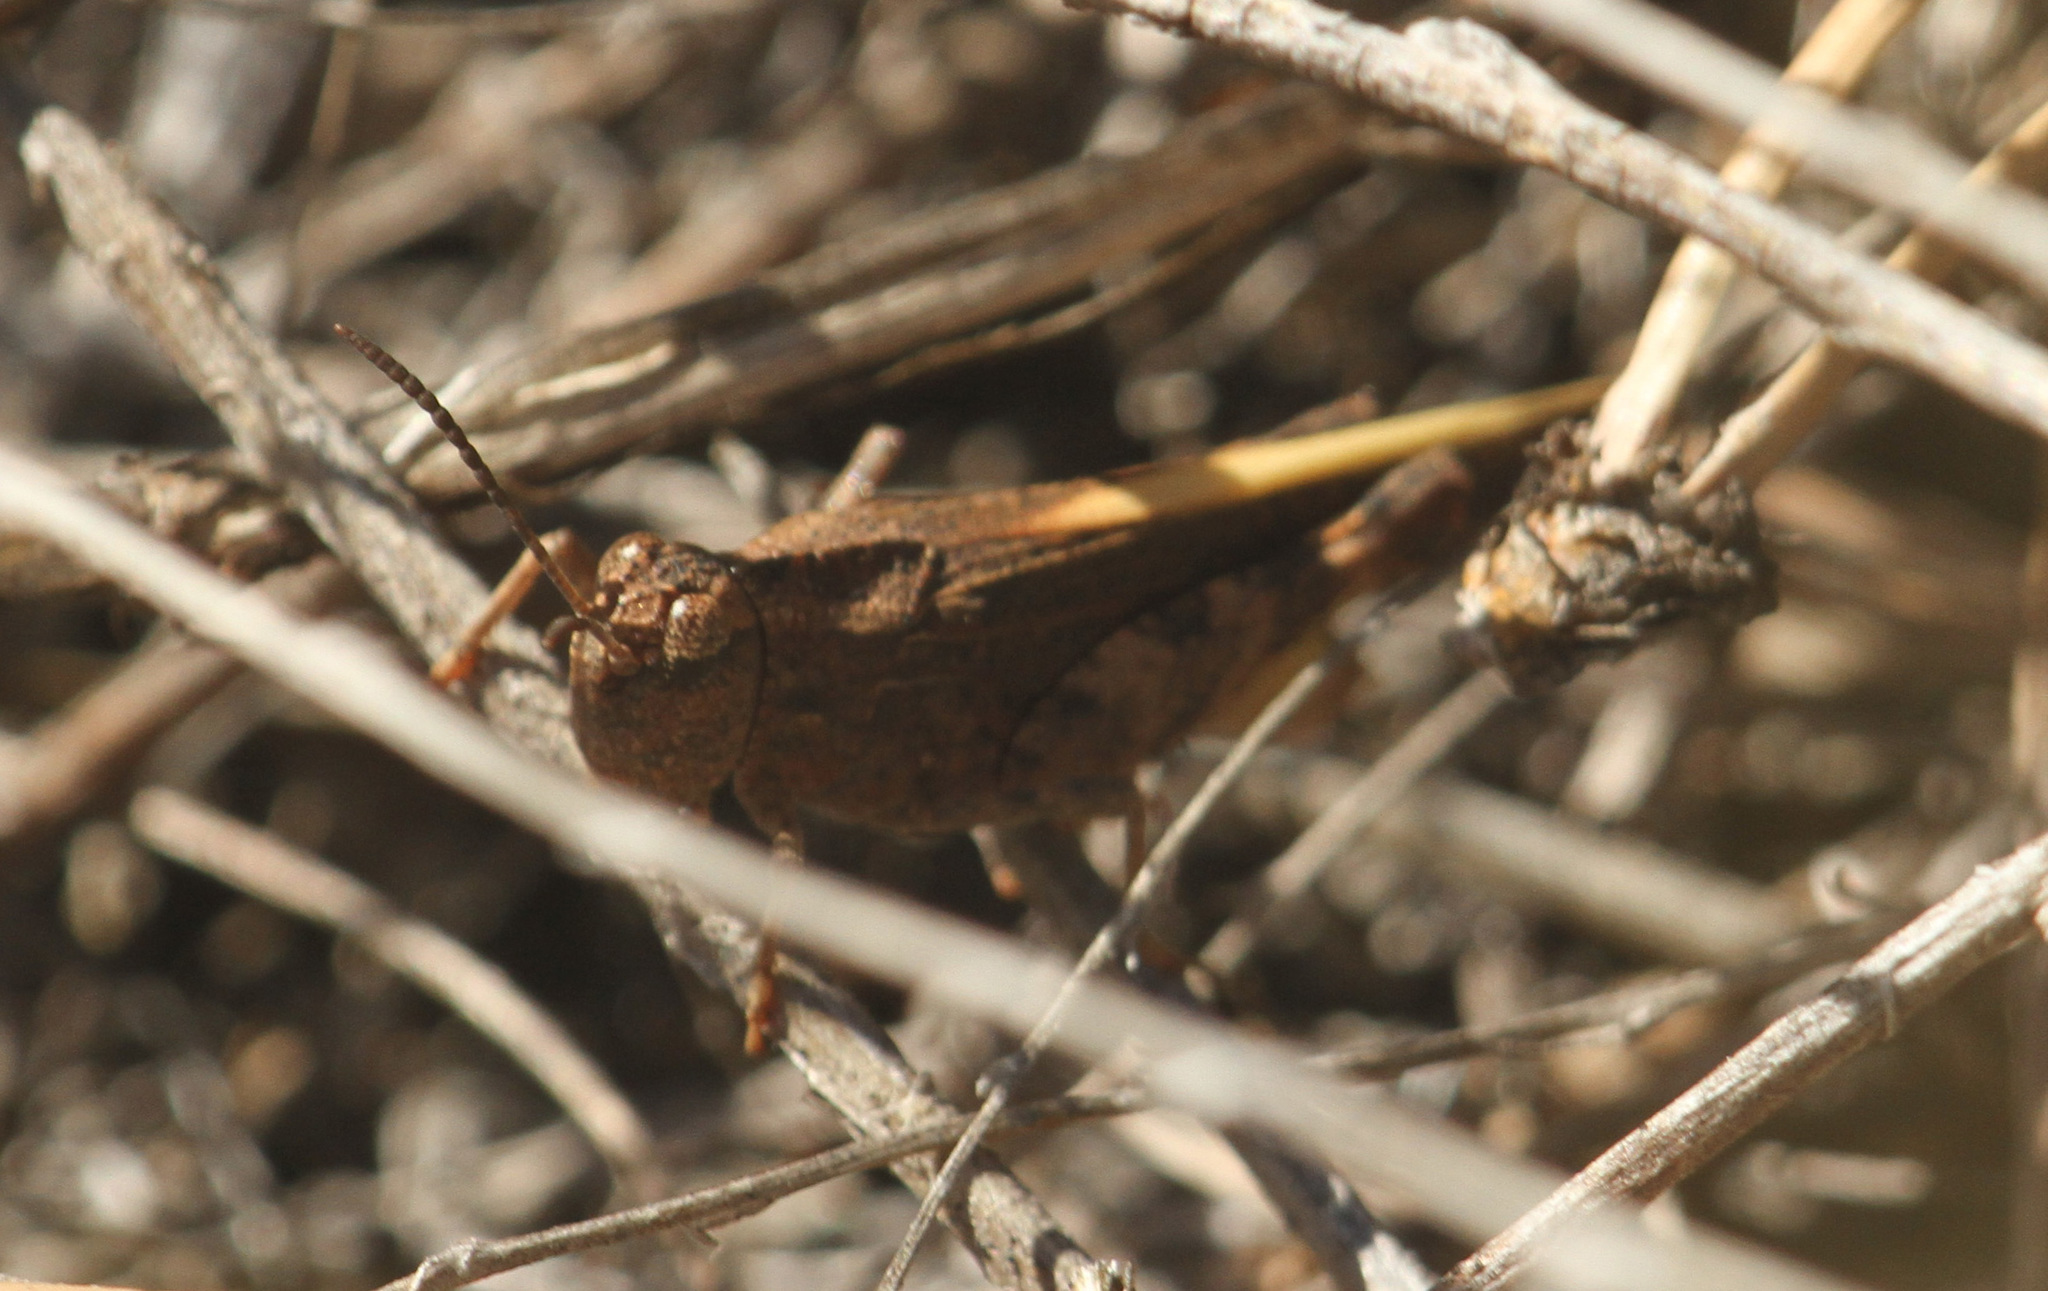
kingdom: Animalia
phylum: Arthropoda
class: Insecta
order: Orthoptera
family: Acrididae
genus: Arphia
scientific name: Arphia conspersa
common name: Speckle-winged rangeland grasshopper
